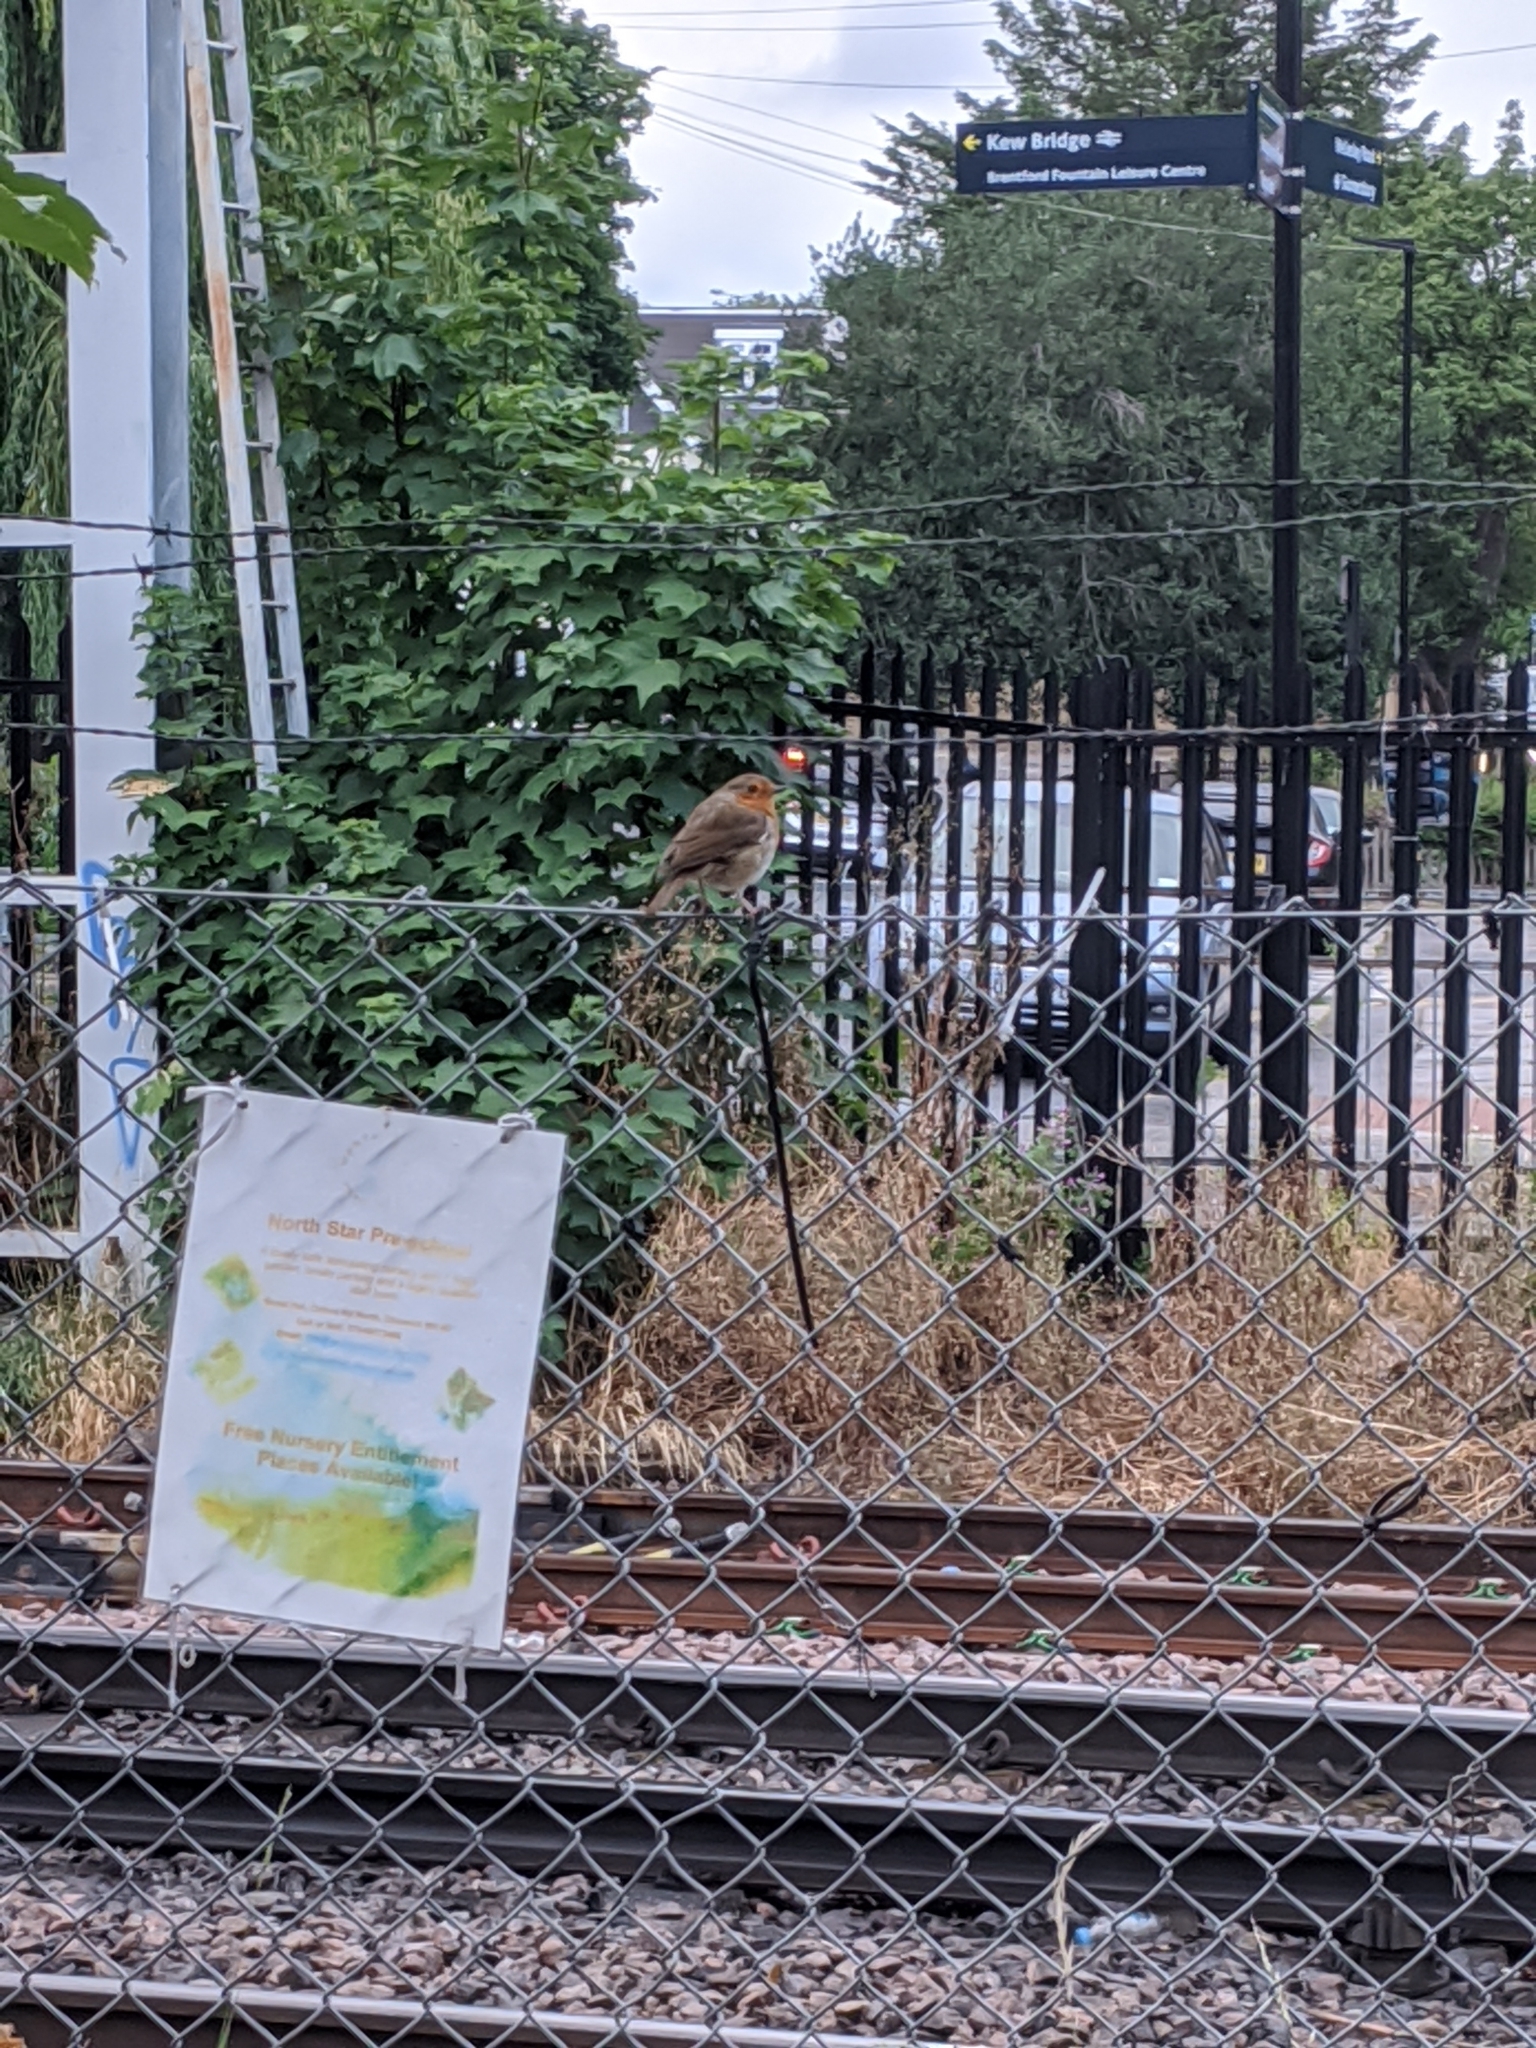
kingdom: Animalia
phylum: Chordata
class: Aves
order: Passeriformes
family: Muscicapidae
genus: Erithacus
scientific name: Erithacus rubecula
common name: European robin
